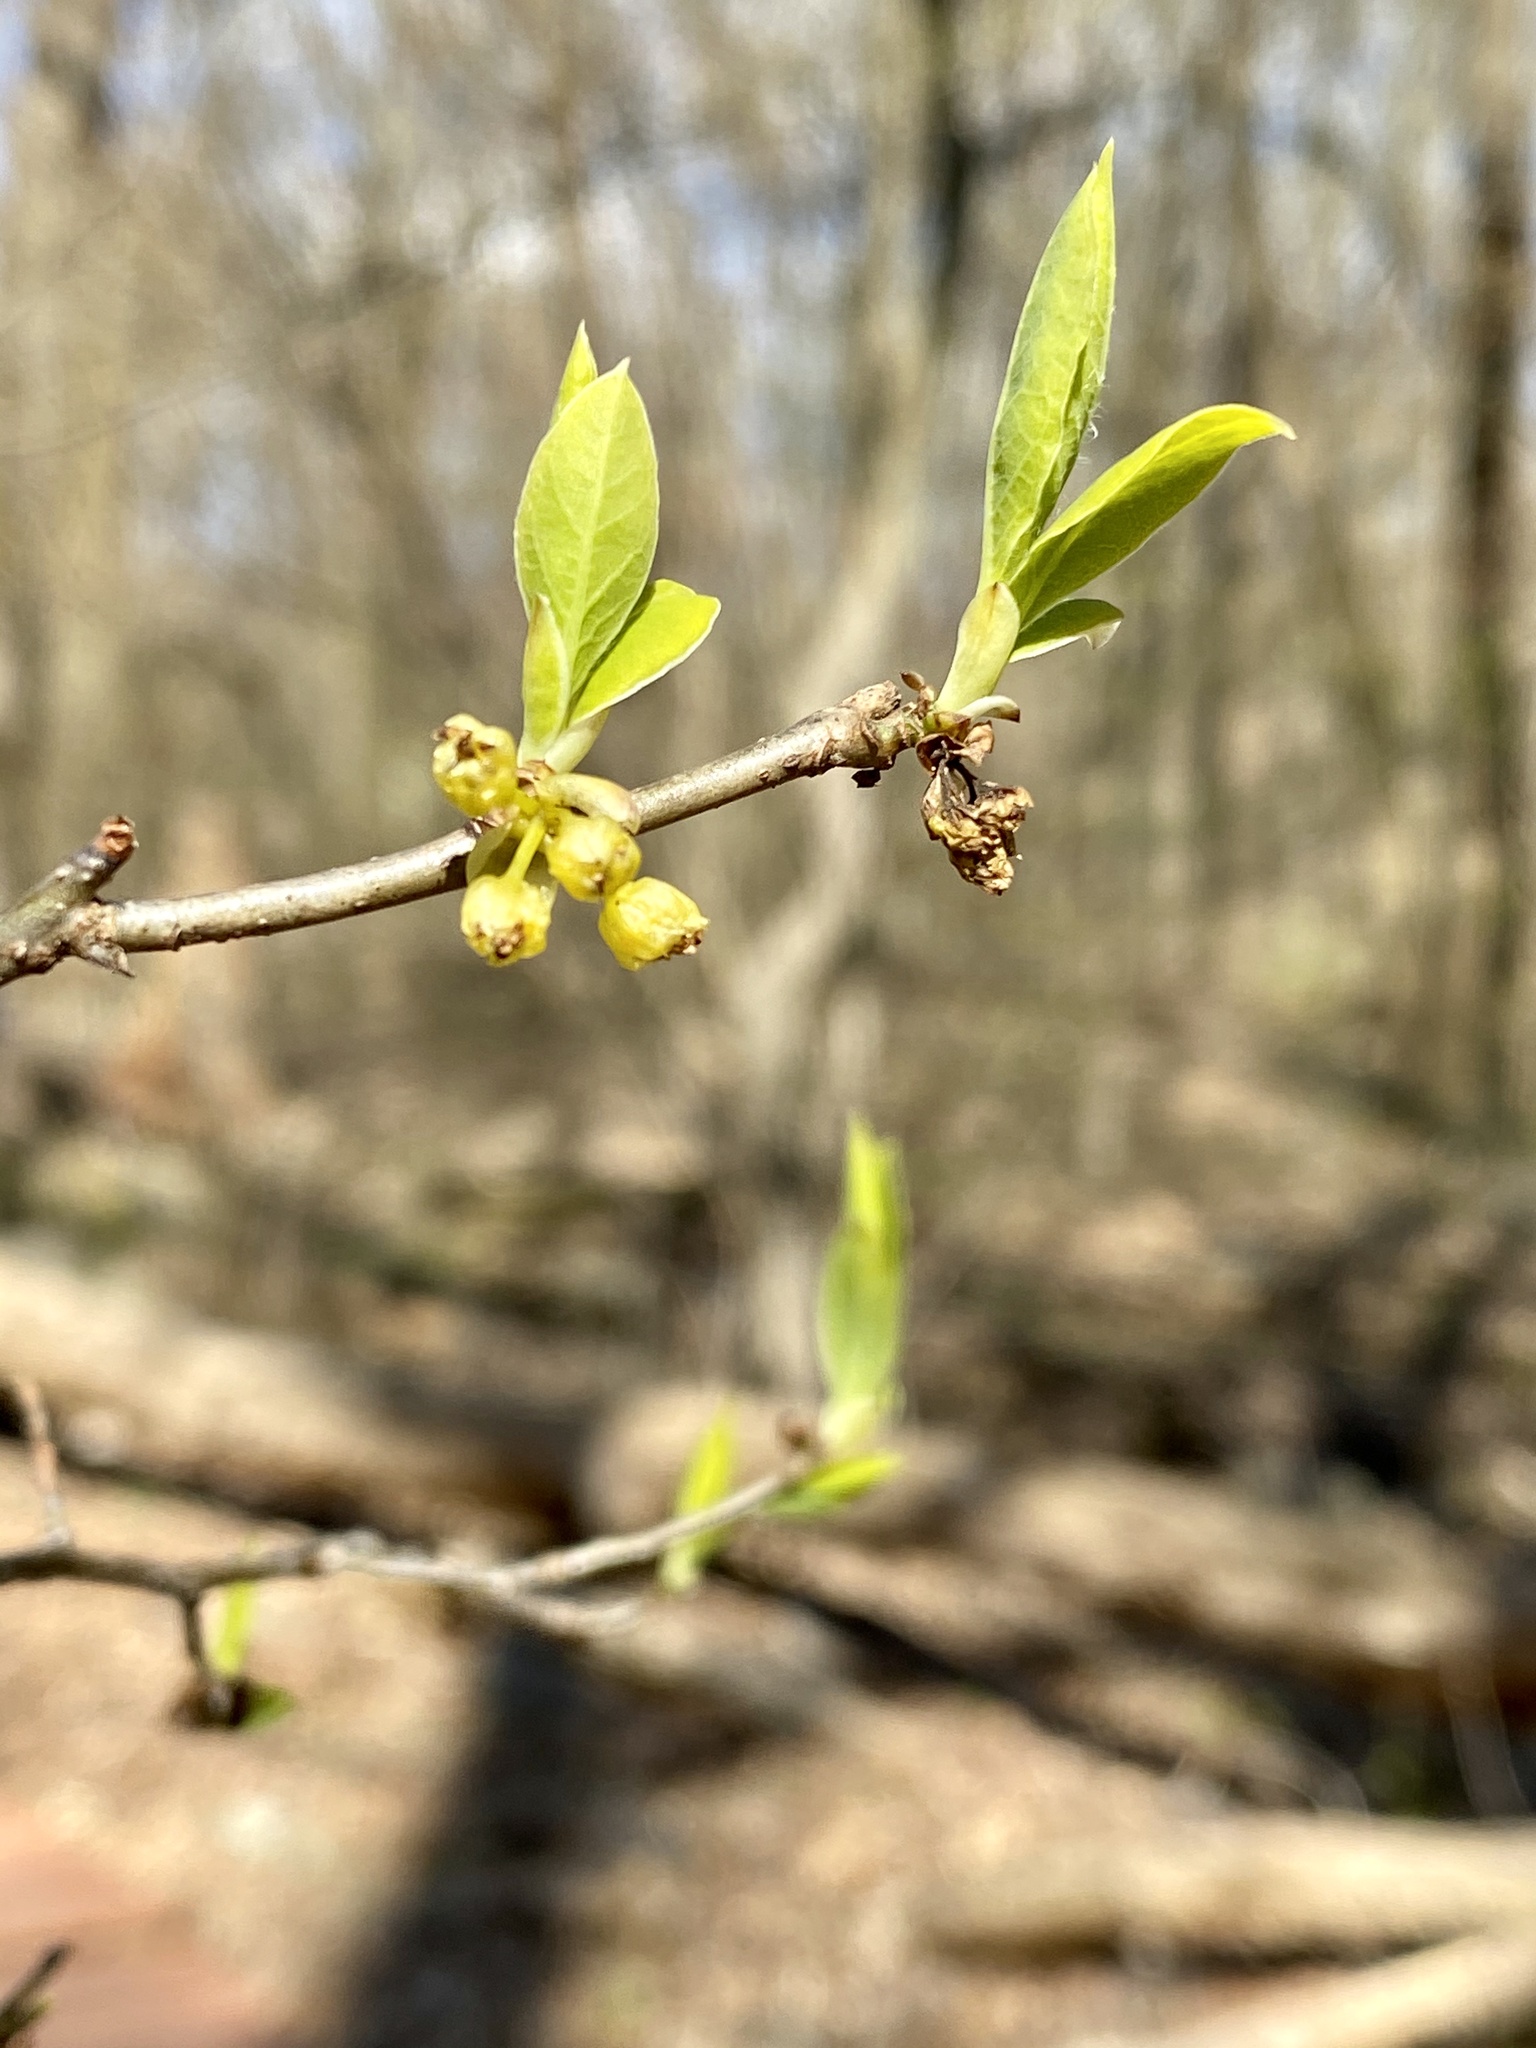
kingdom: Plantae
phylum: Tracheophyta
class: Magnoliopsida
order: Laurales
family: Lauraceae
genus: Lindera
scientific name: Lindera benzoin
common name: Spicebush
